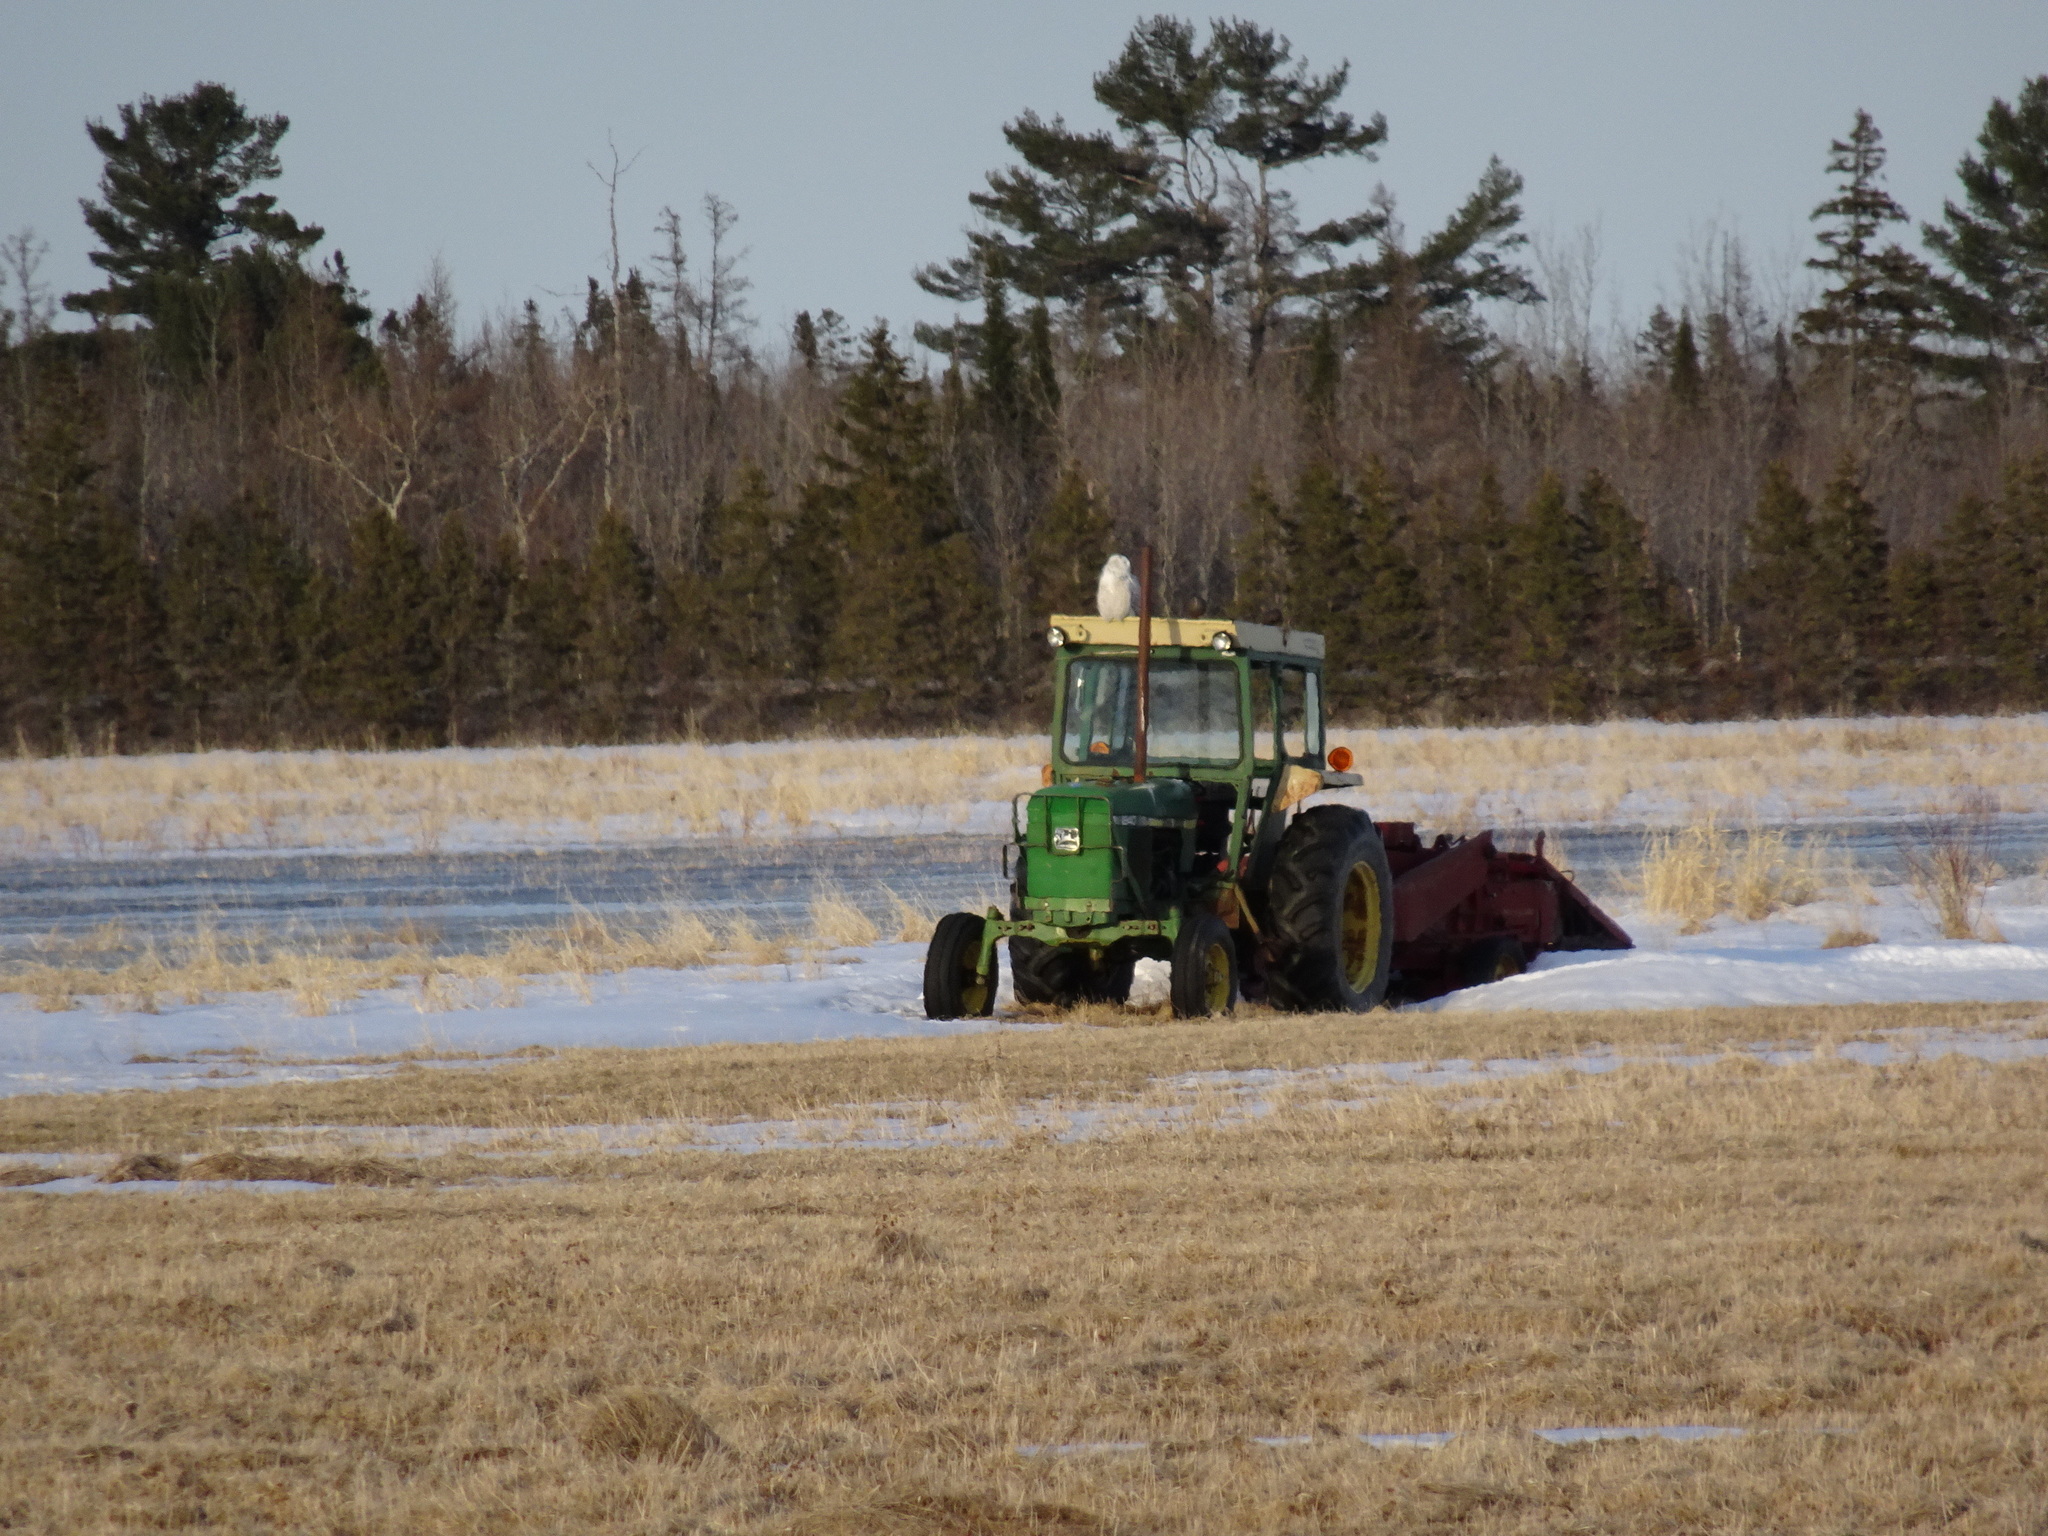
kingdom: Animalia
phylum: Chordata
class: Aves
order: Strigiformes
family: Strigidae
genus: Bubo
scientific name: Bubo scandiacus
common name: Snowy owl
